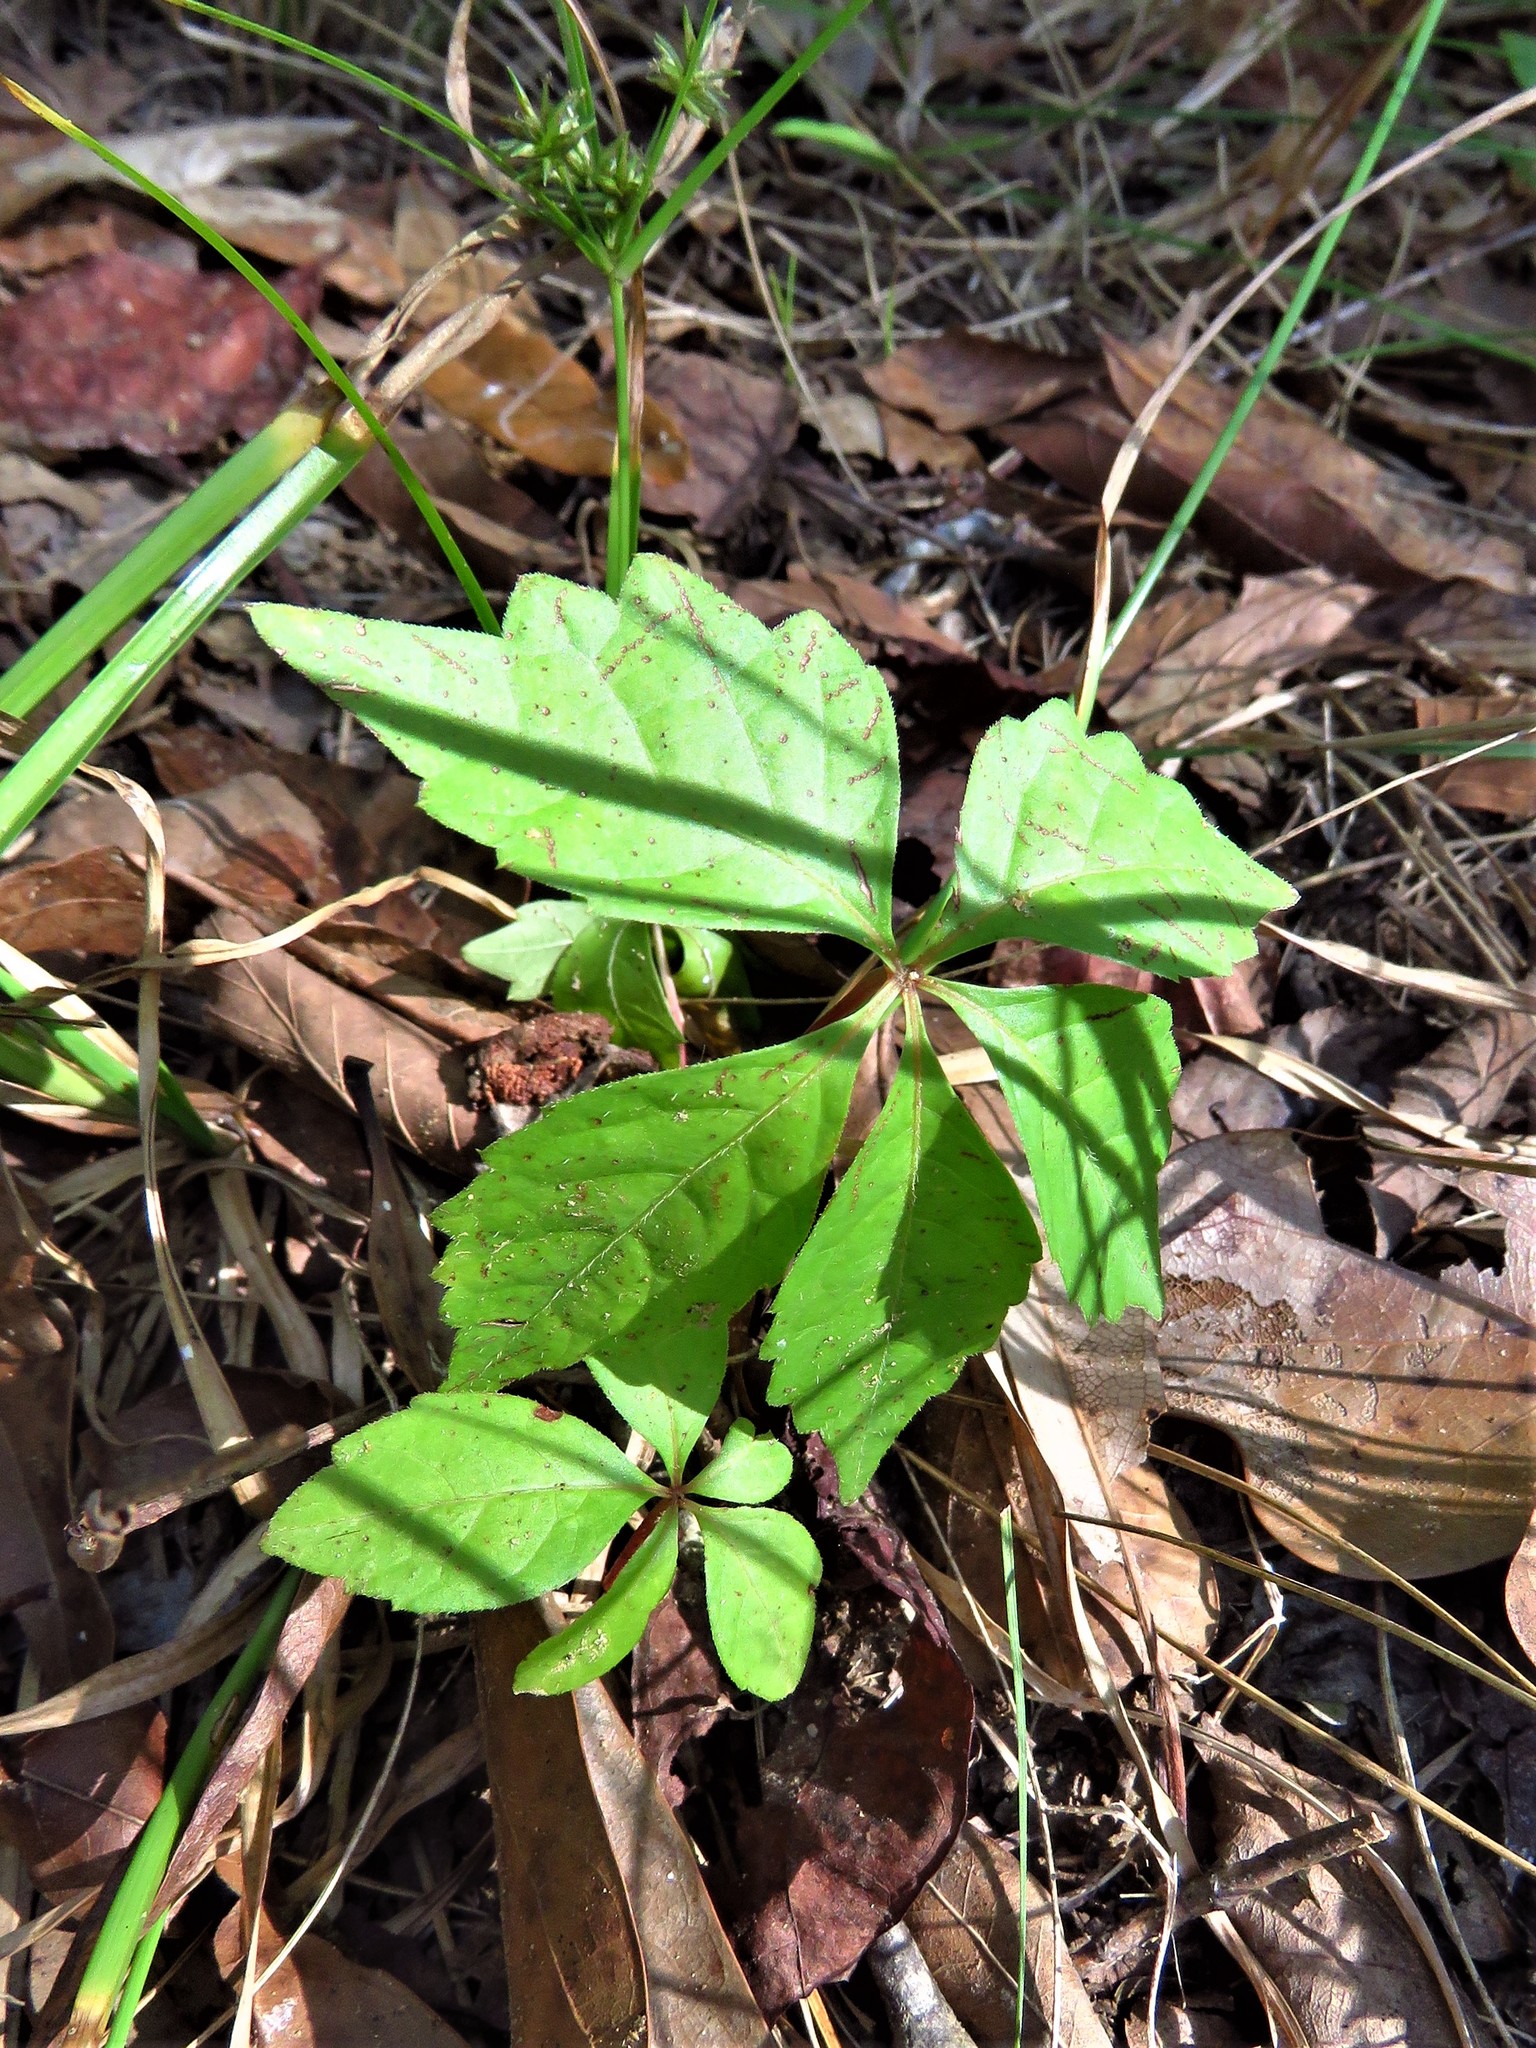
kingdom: Plantae
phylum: Tracheophyta
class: Magnoliopsida
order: Vitales
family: Vitaceae
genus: Parthenocissus
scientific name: Parthenocissus quinquefolia
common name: Virginia-creeper
